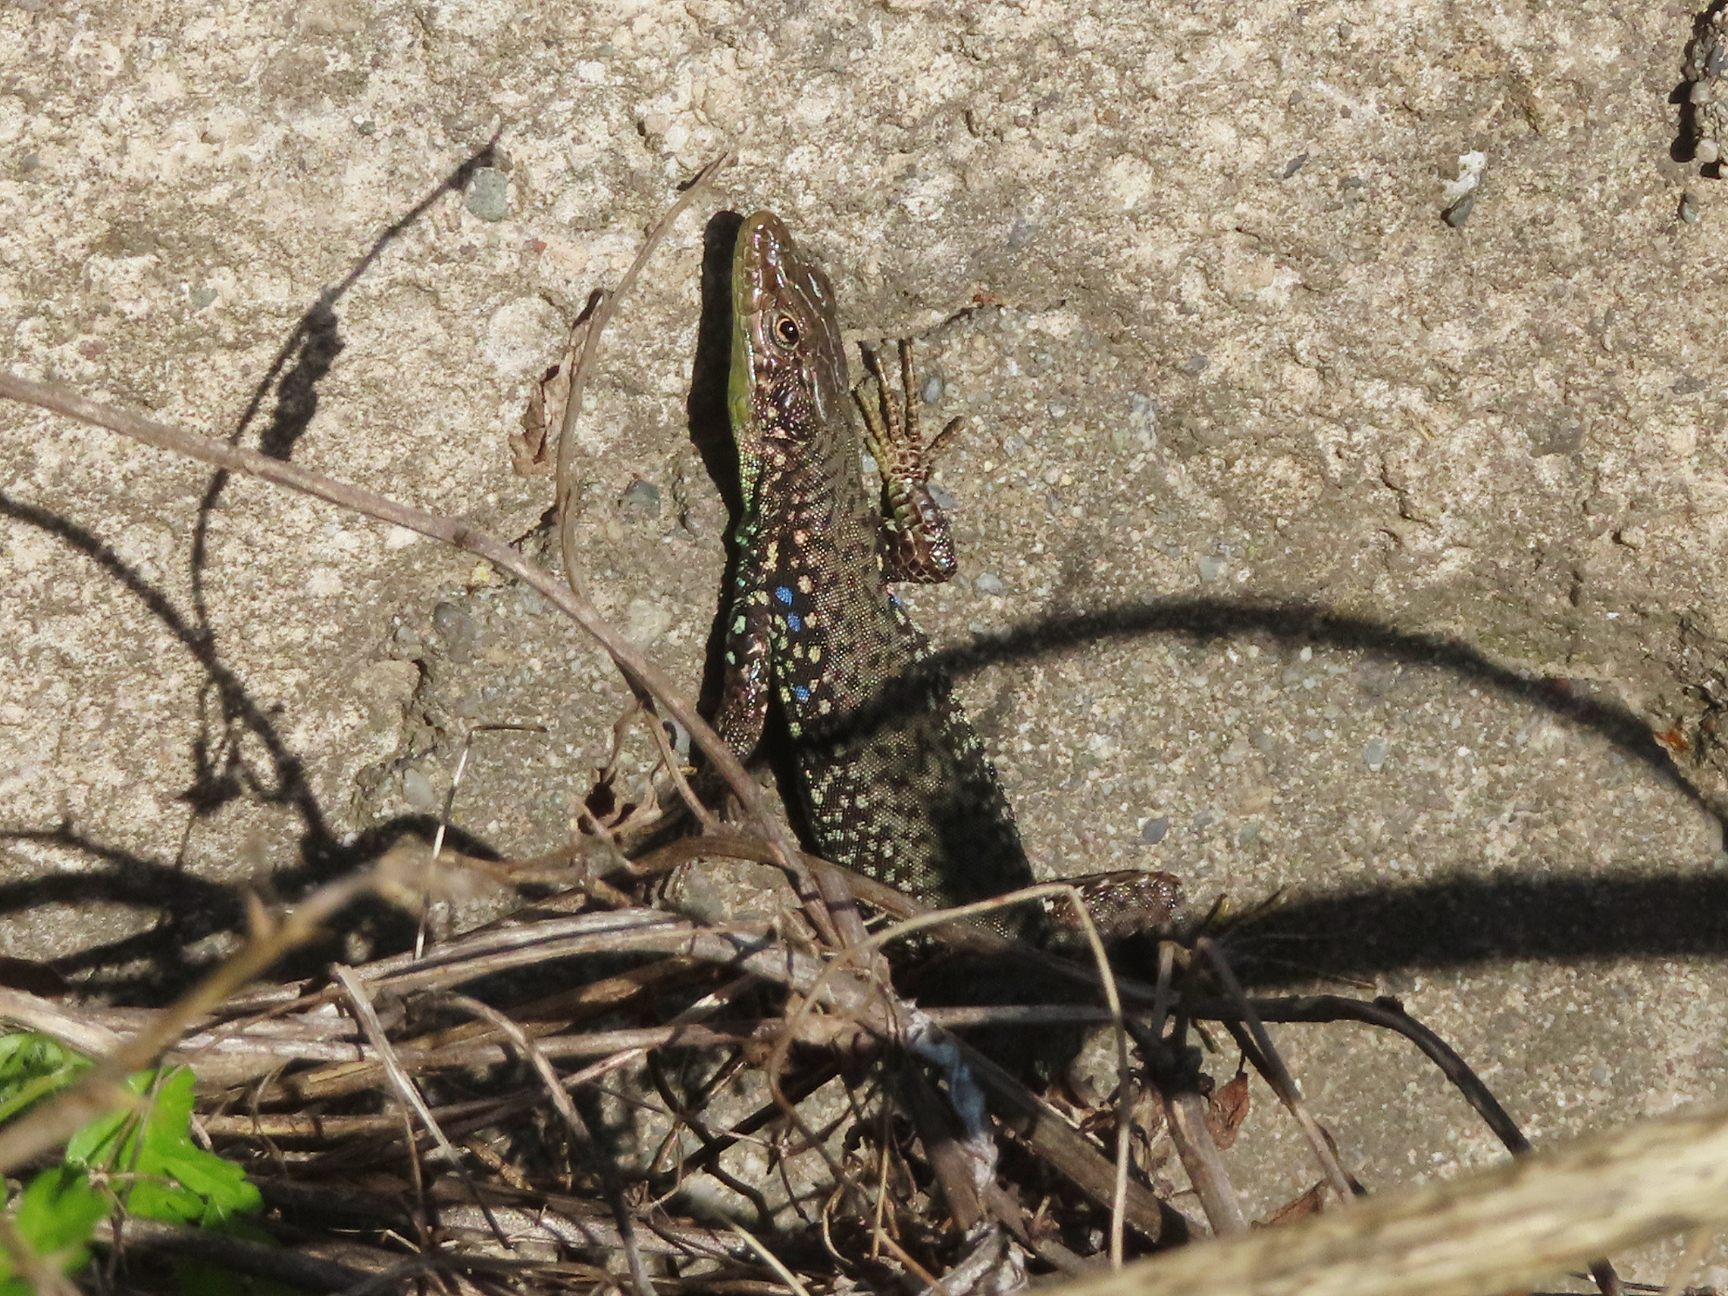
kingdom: Animalia
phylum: Chordata
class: Squamata
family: Lacertidae
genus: Darevskia
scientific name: Darevskia
